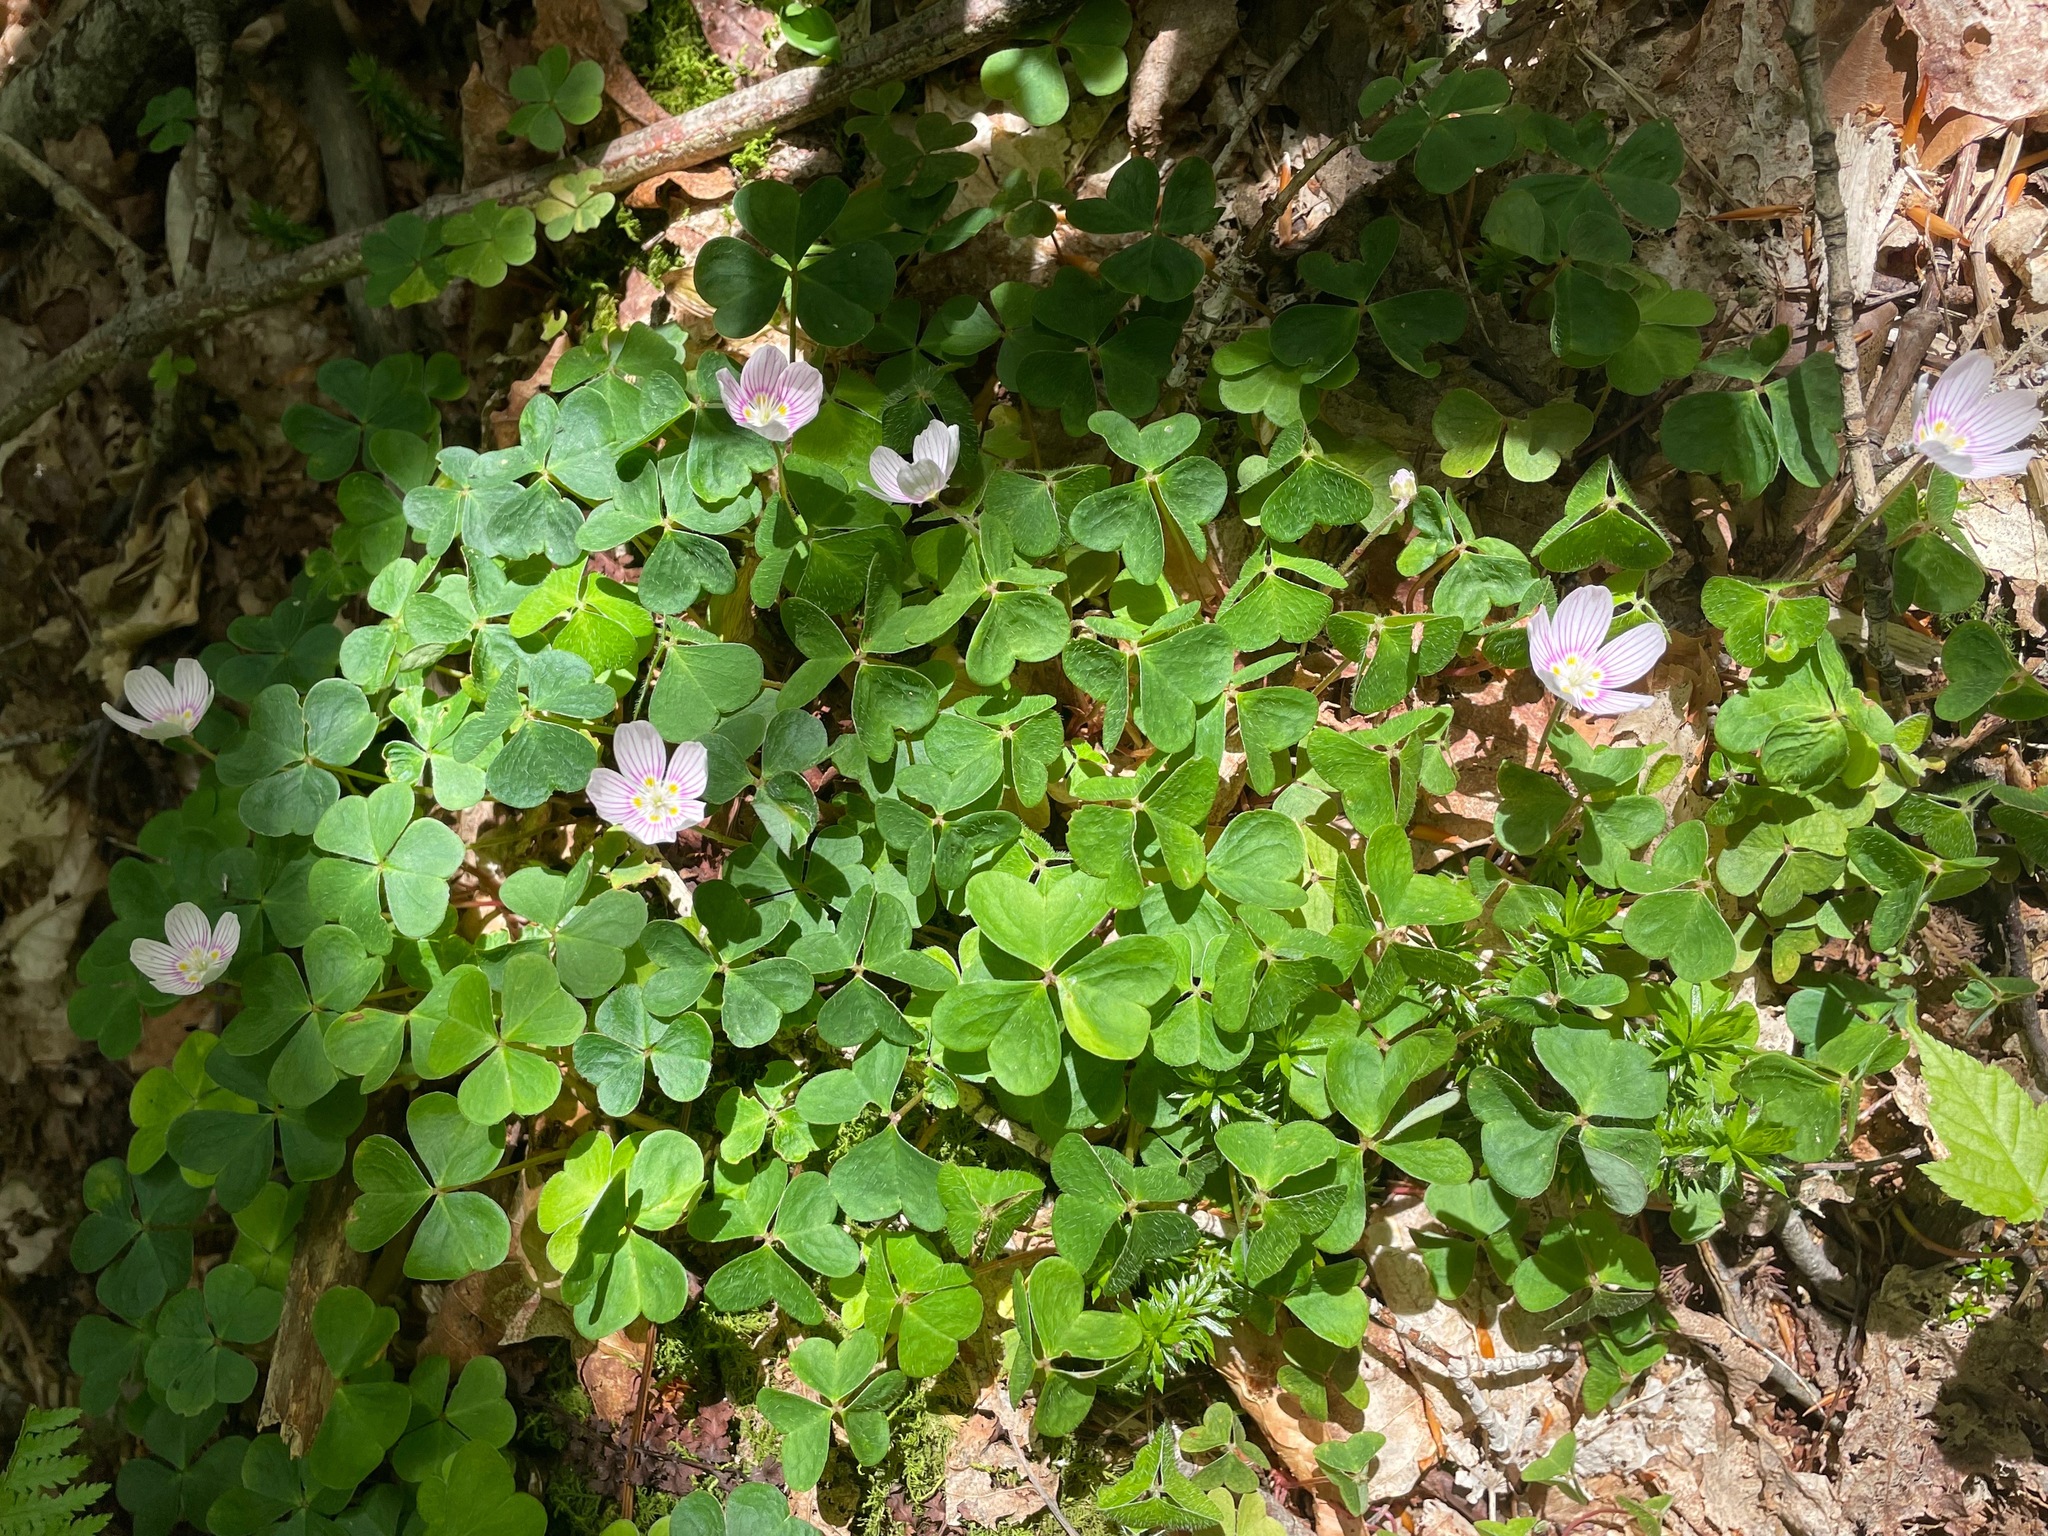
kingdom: Plantae
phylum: Tracheophyta
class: Magnoliopsida
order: Oxalidales
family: Oxalidaceae
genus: Oxalis
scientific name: Oxalis montana
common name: American wood-sorrel
